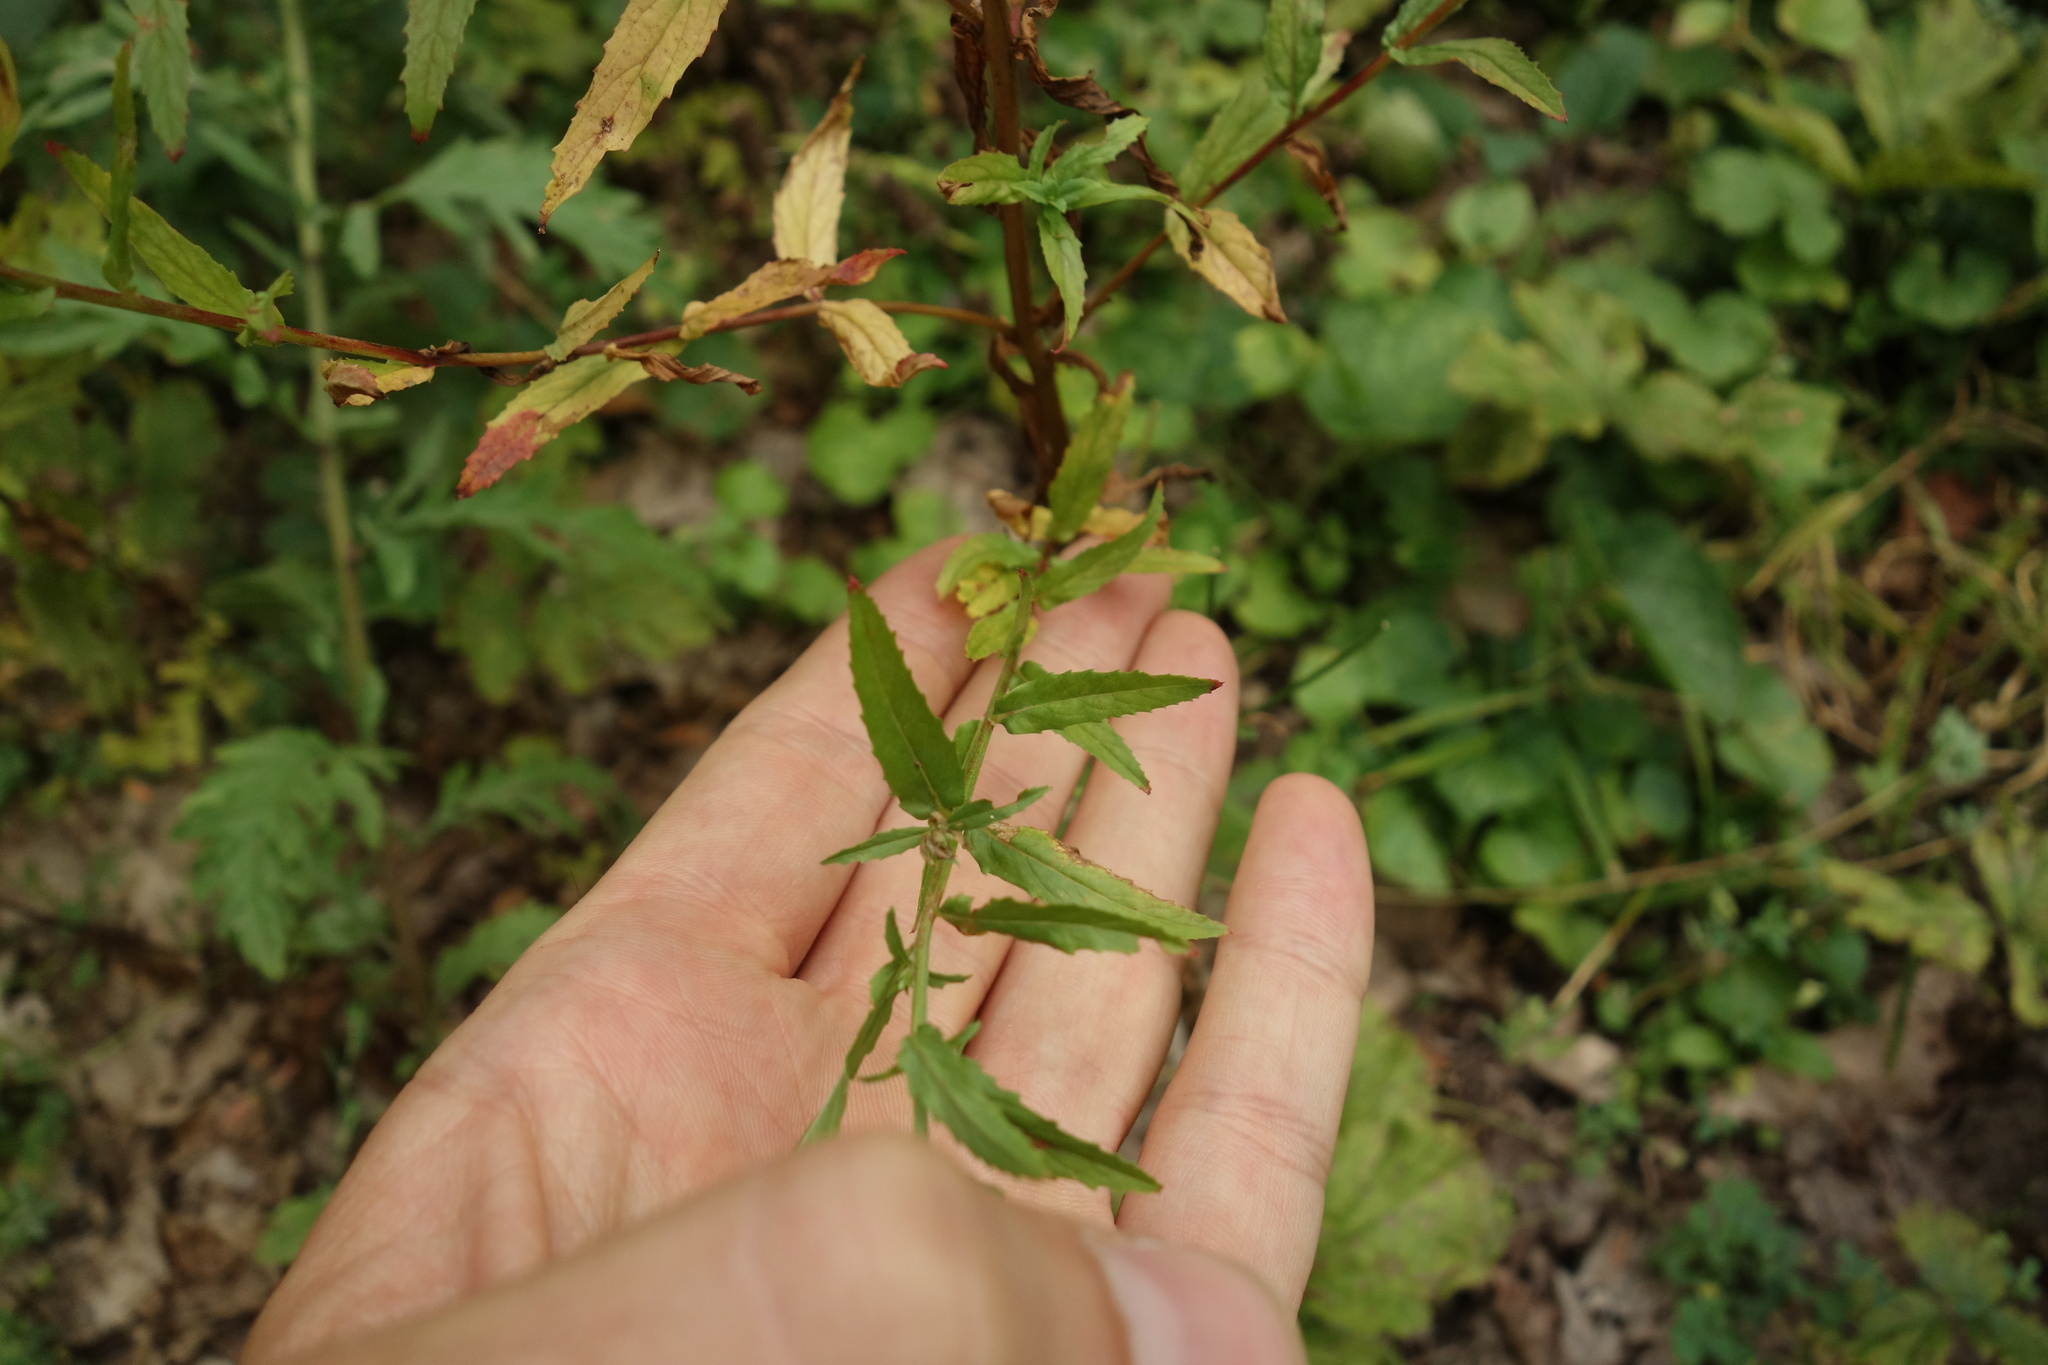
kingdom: Plantae
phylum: Tracheophyta
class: Magnoliopsida
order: Myrtales
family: Onagraceae
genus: Epilobium
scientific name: Epilobium tetragonum
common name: Square-stemmed willowherb
